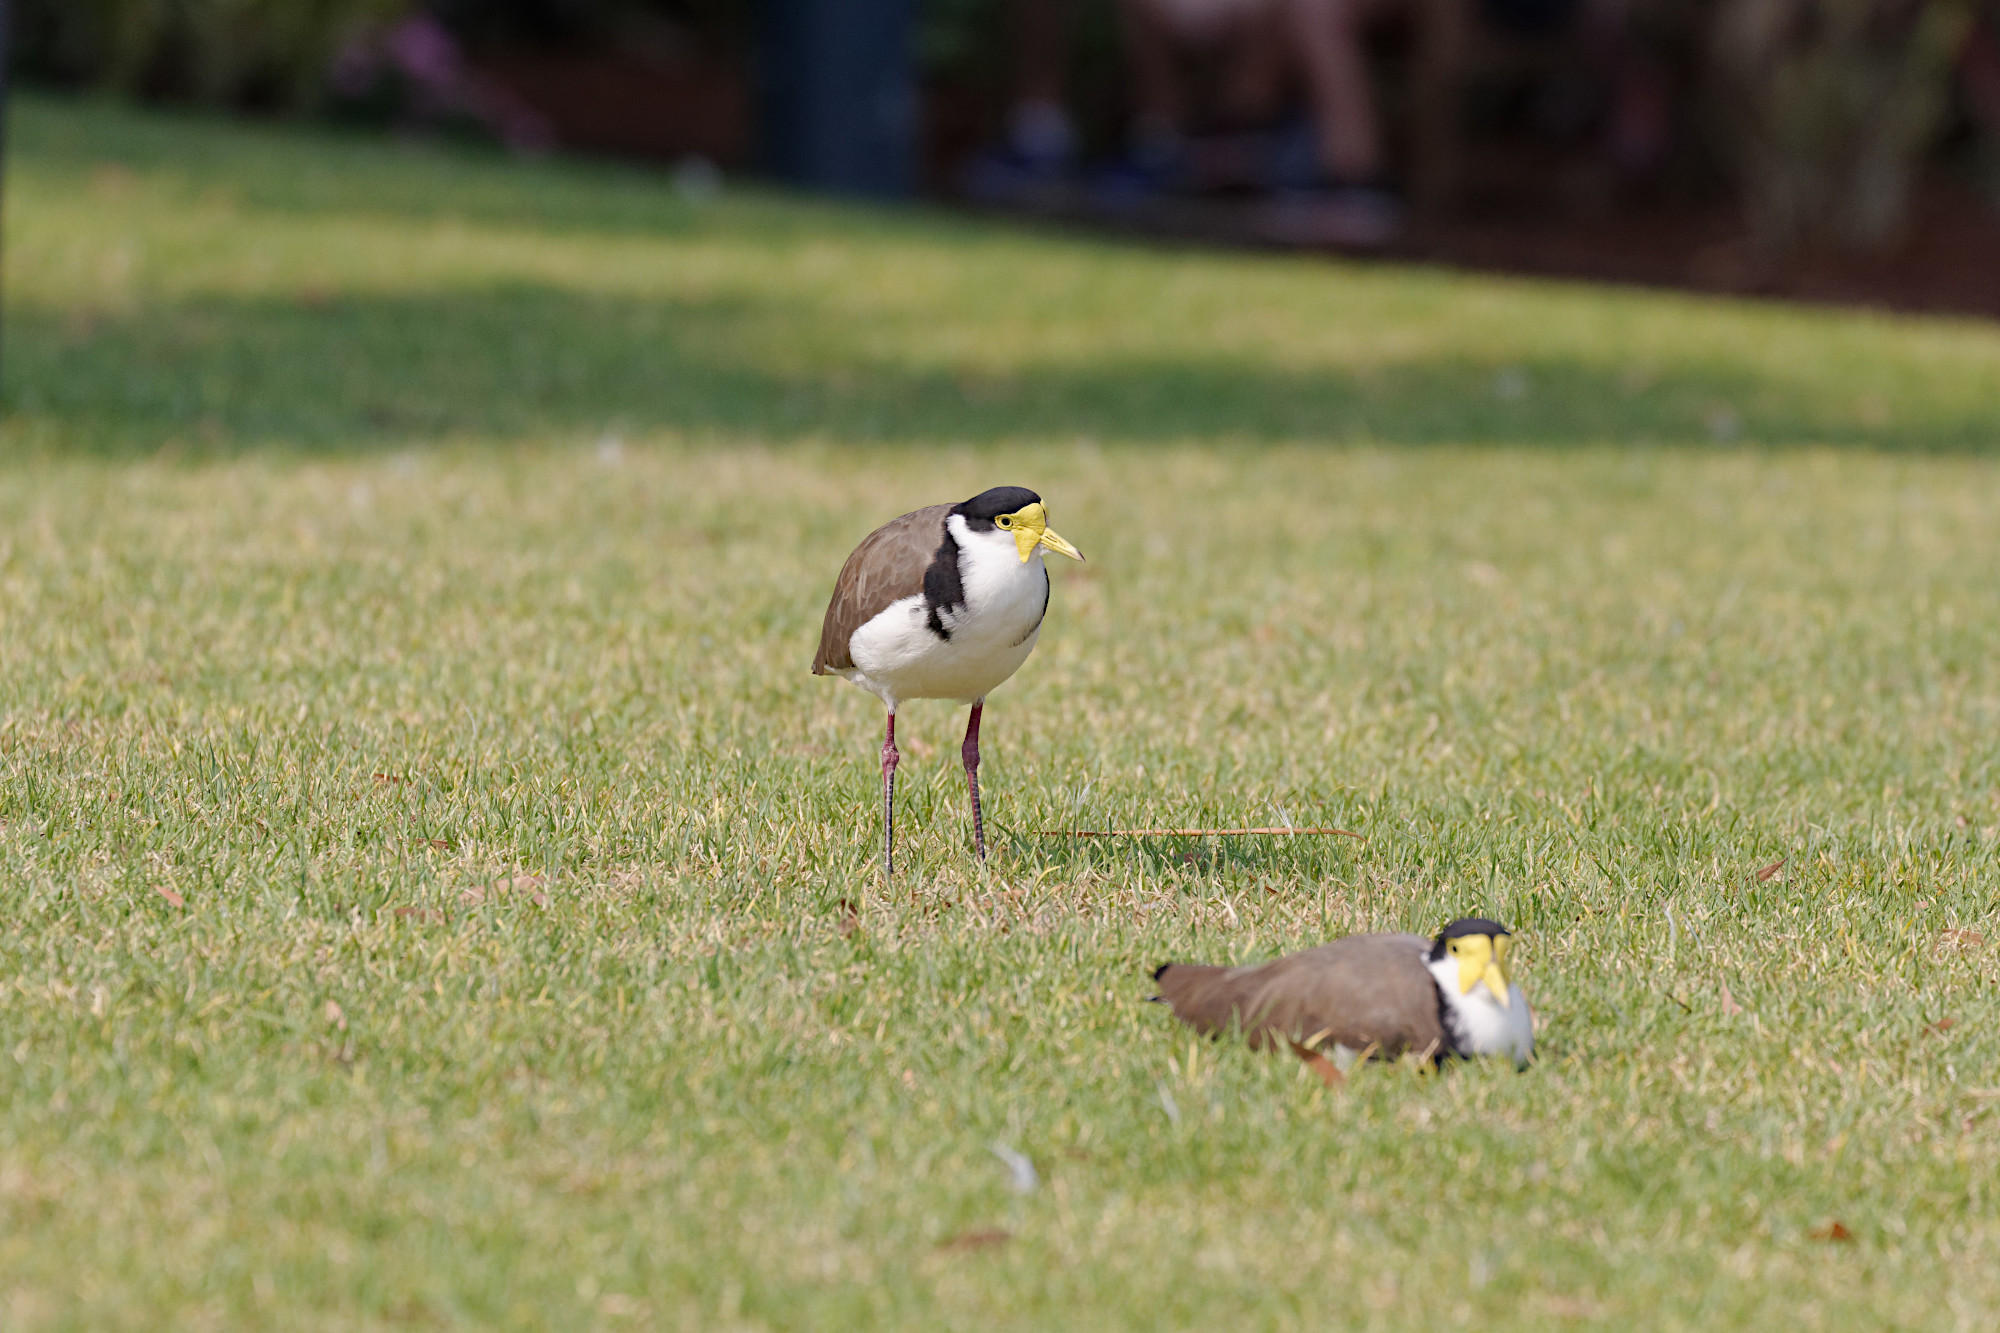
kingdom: Animalia
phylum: Chordata
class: Aves
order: Charadriiformes
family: Charadriidae
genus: Vanellus
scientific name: Vanellus miles
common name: Masked lapwing
